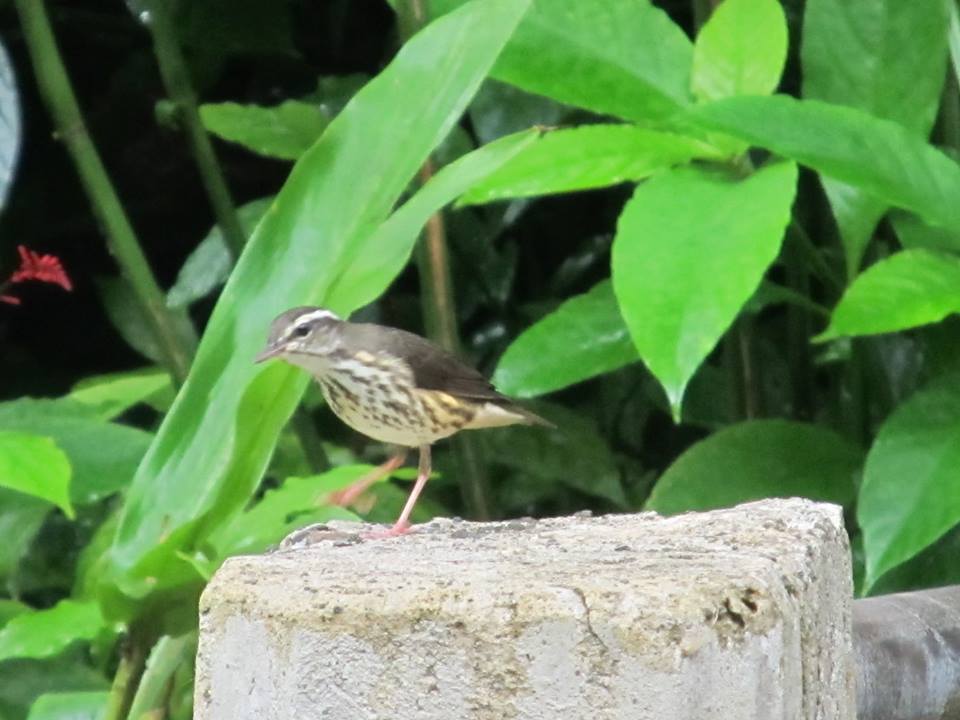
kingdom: Animalia
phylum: Chordata
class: Aves
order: Passeriformes
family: Parulidae
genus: Parkesia
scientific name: Parkesia motacilla
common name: Louisiana waterthrush
